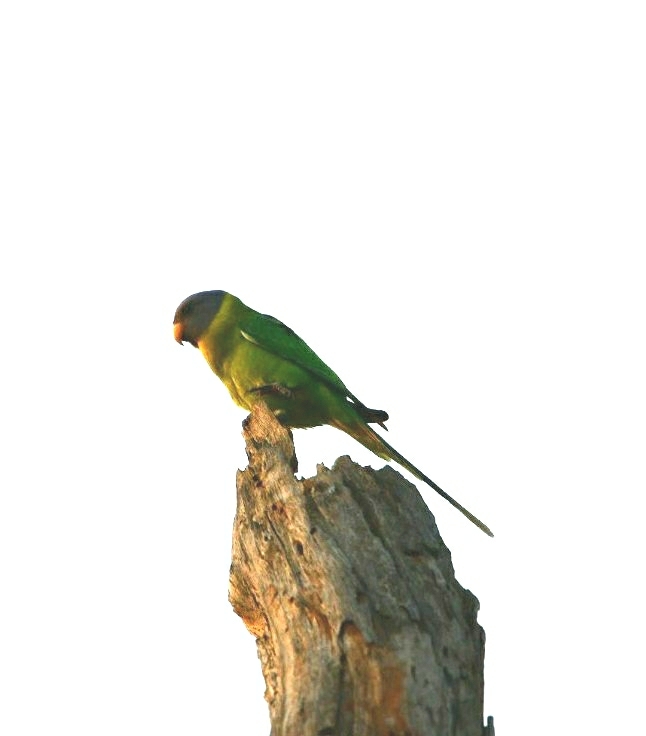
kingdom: Animalia
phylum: Chordata
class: Aves
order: Psittaciformes
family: Psittacidae
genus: Psittacula
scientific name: Psittacula cyanocephala
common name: Plum-headed parakeet
